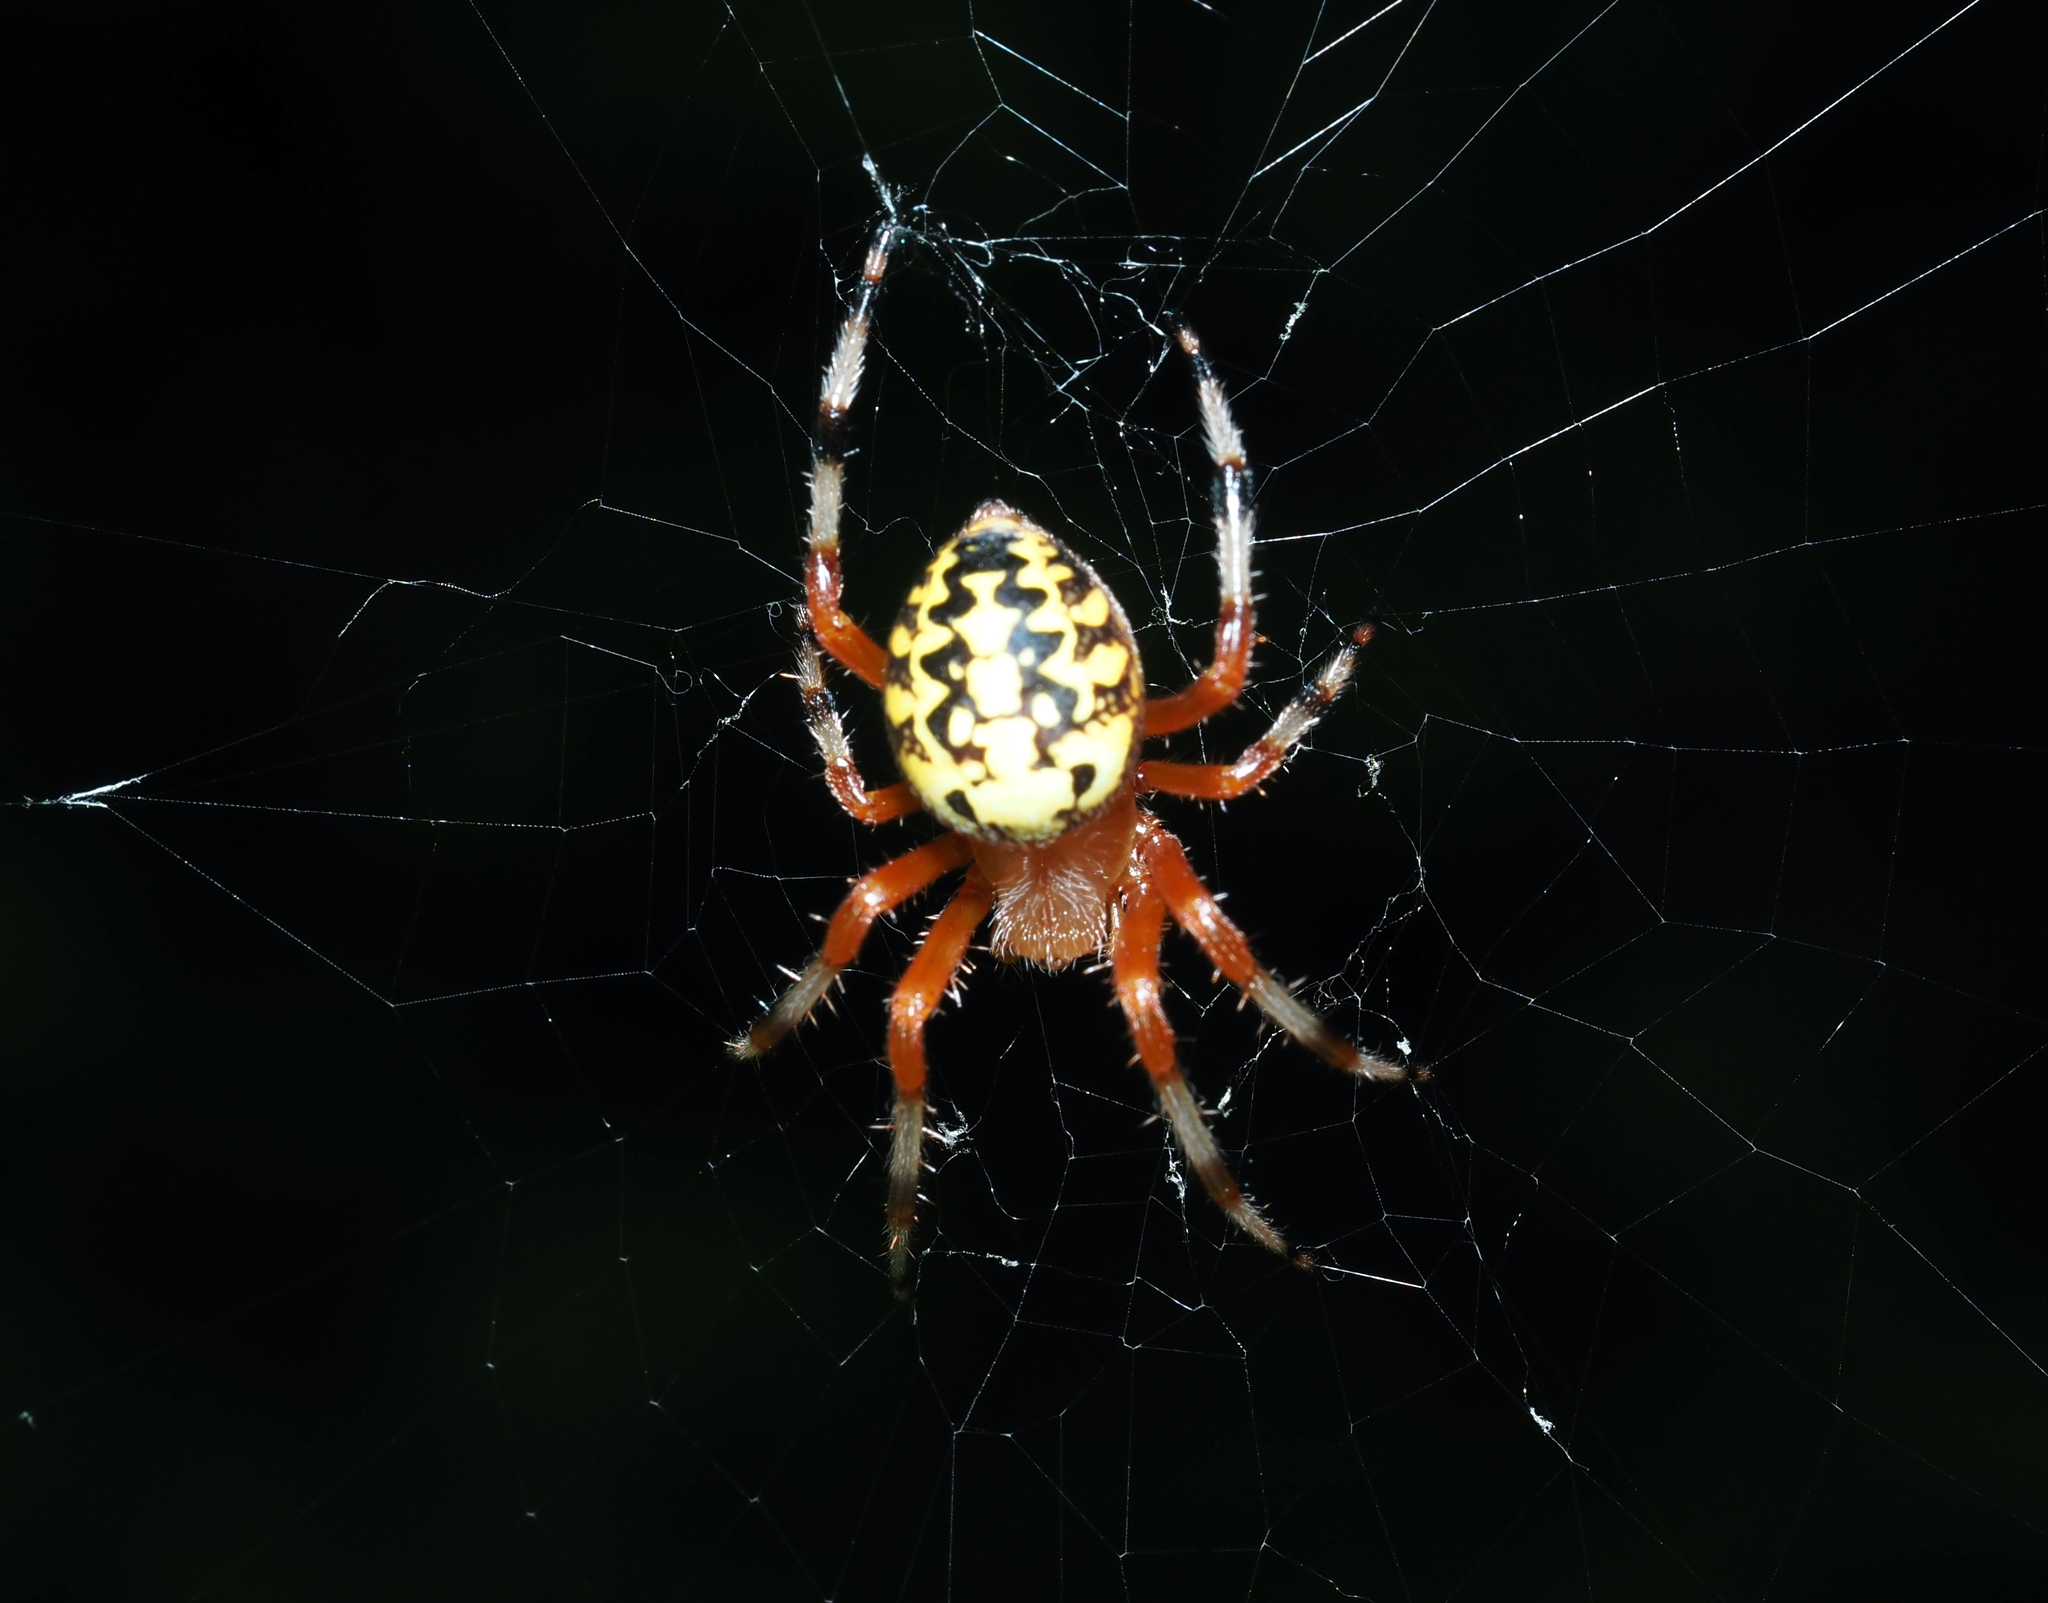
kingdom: Animalia
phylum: Arthropoda
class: Arachnida
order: Araneae
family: Araneidae
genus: Araneus
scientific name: Araneus marmoreus
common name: Marbled orbweaver
